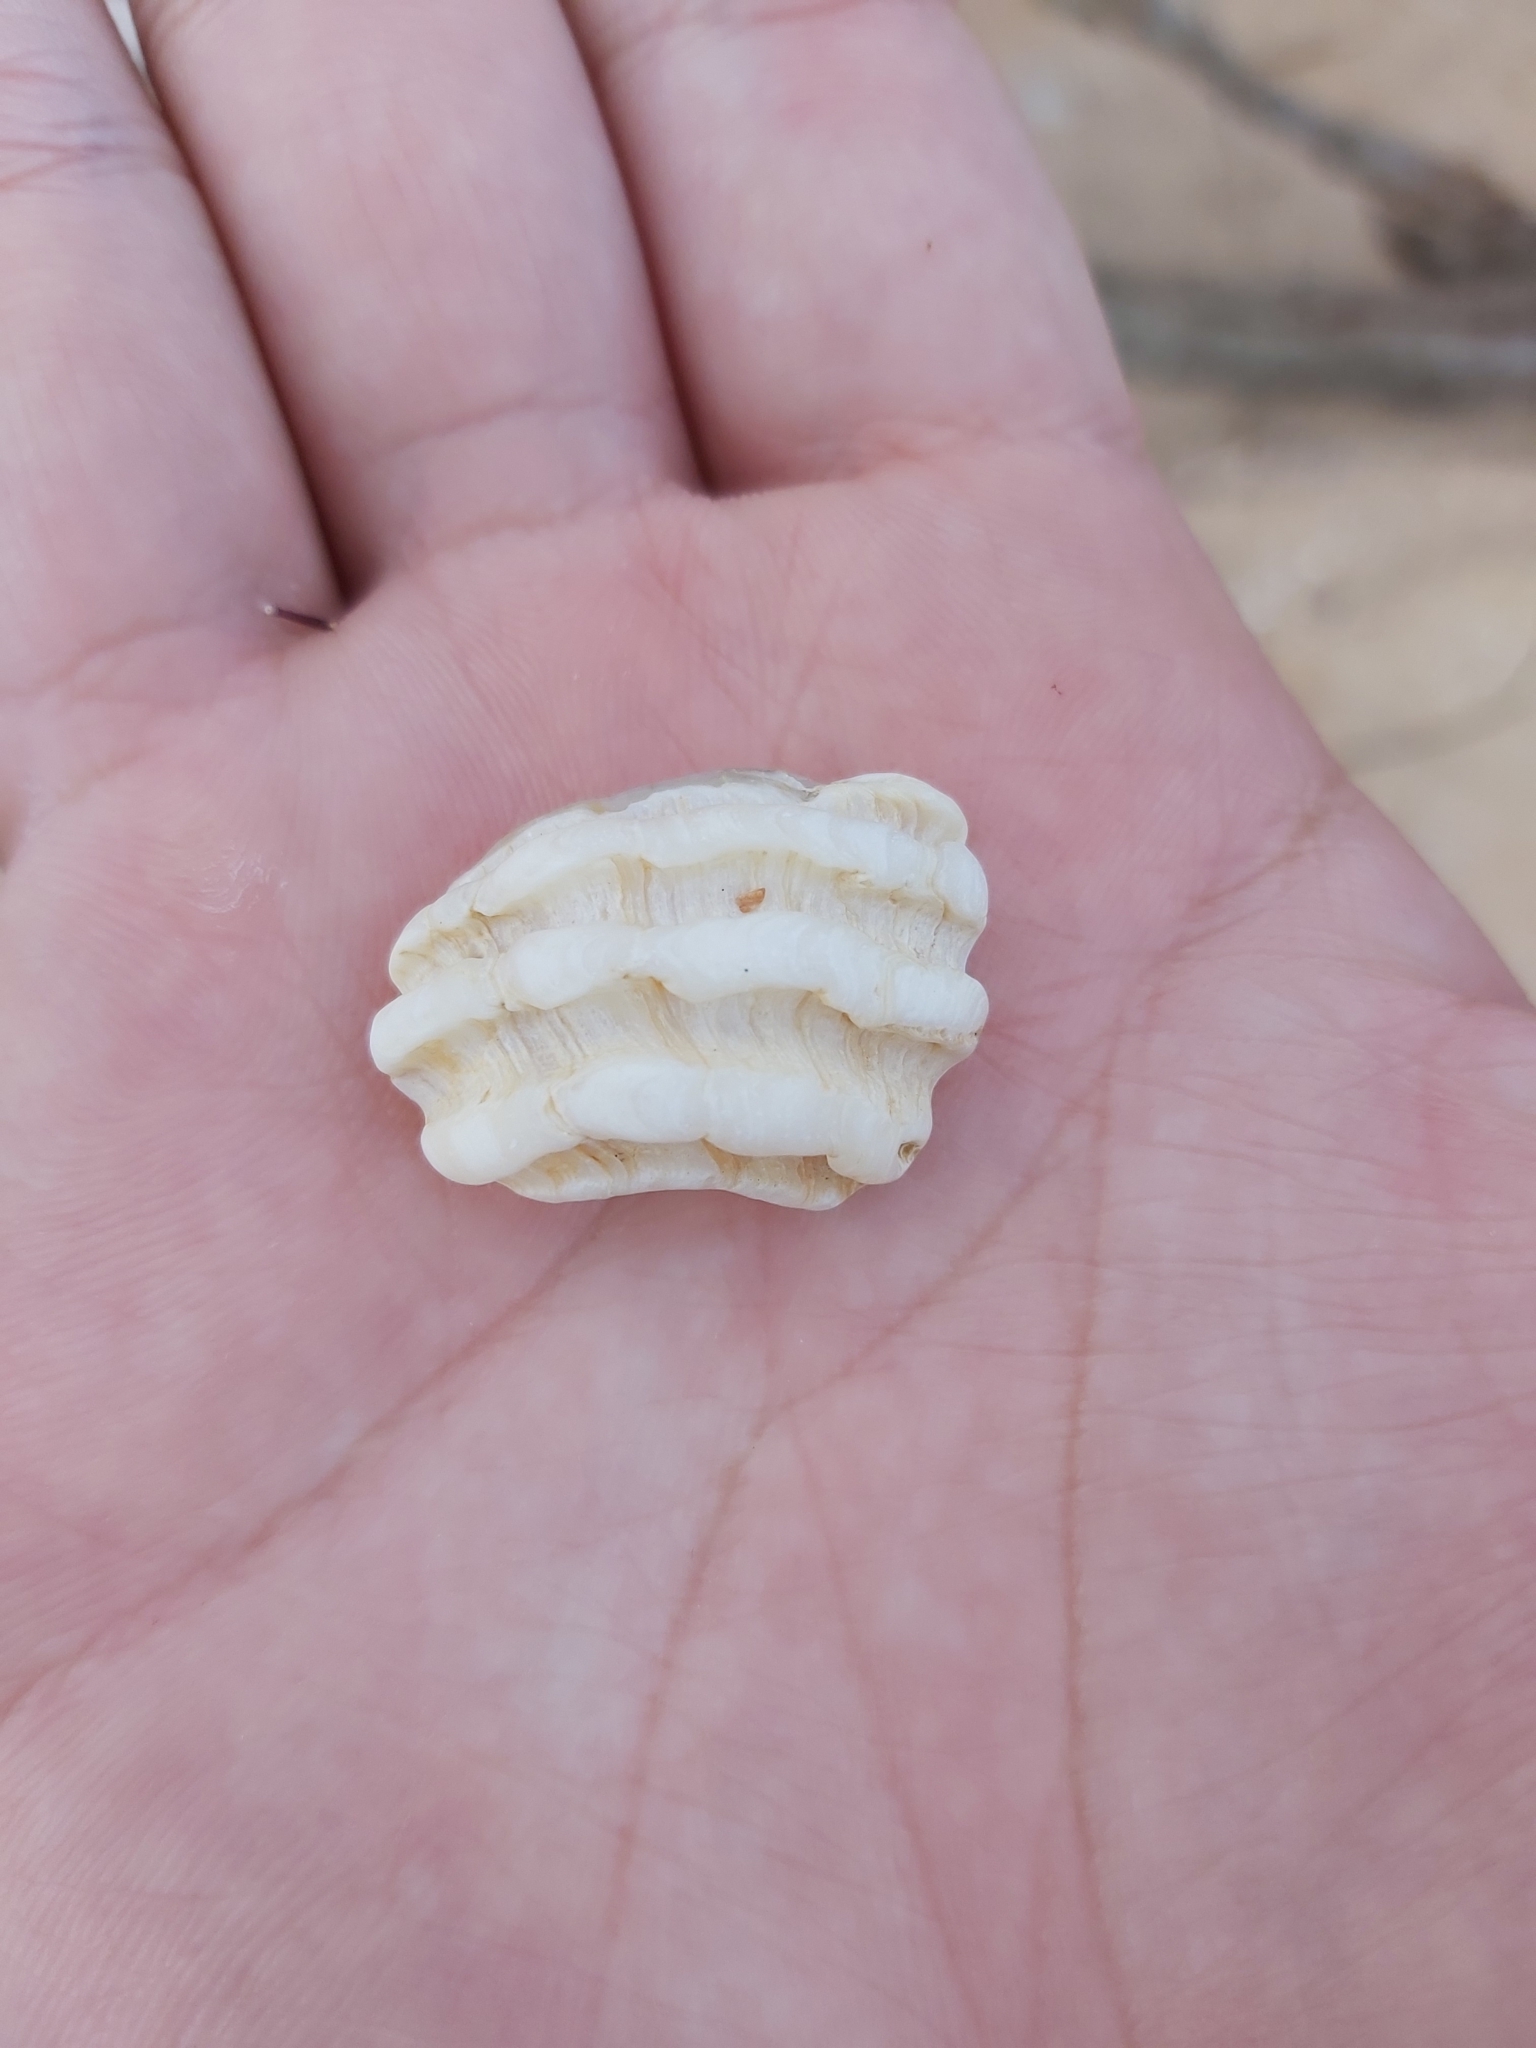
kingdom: Animalia
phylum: Mollusca
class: Gastropoda
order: Neogastropoda
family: Muricidae
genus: Dicathais
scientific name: Dicathais orbita
